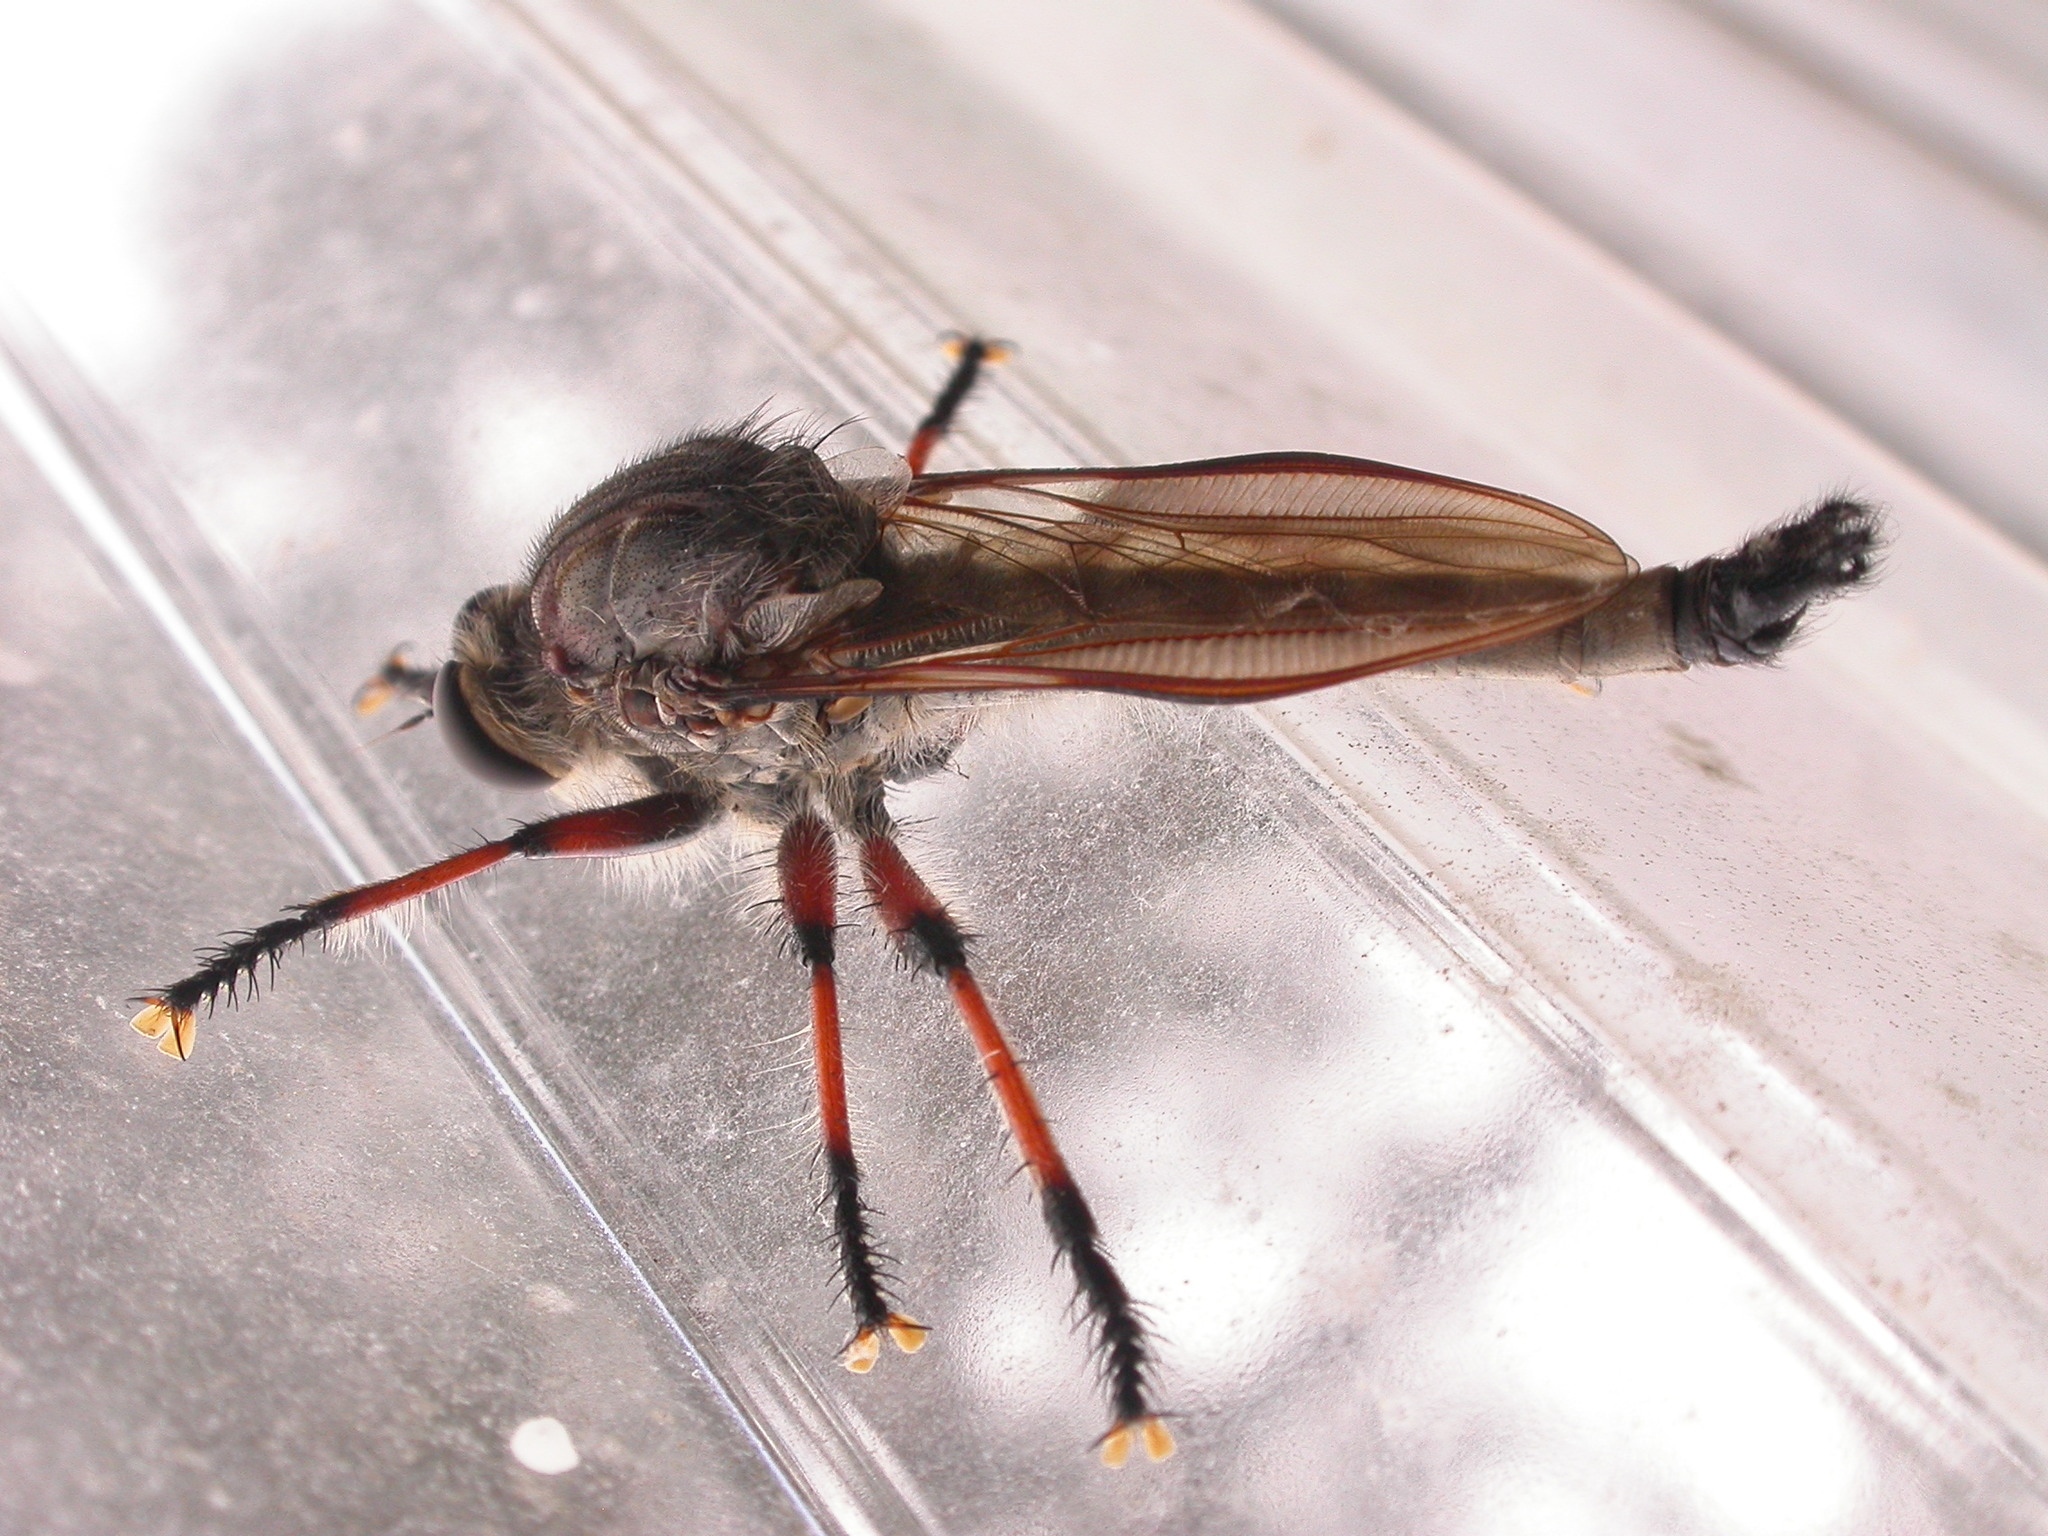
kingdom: Animalia
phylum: Arthropoda
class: Insecta
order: Diptera
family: Asilidae
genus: Neoaratus
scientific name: Neoaratus hercules
